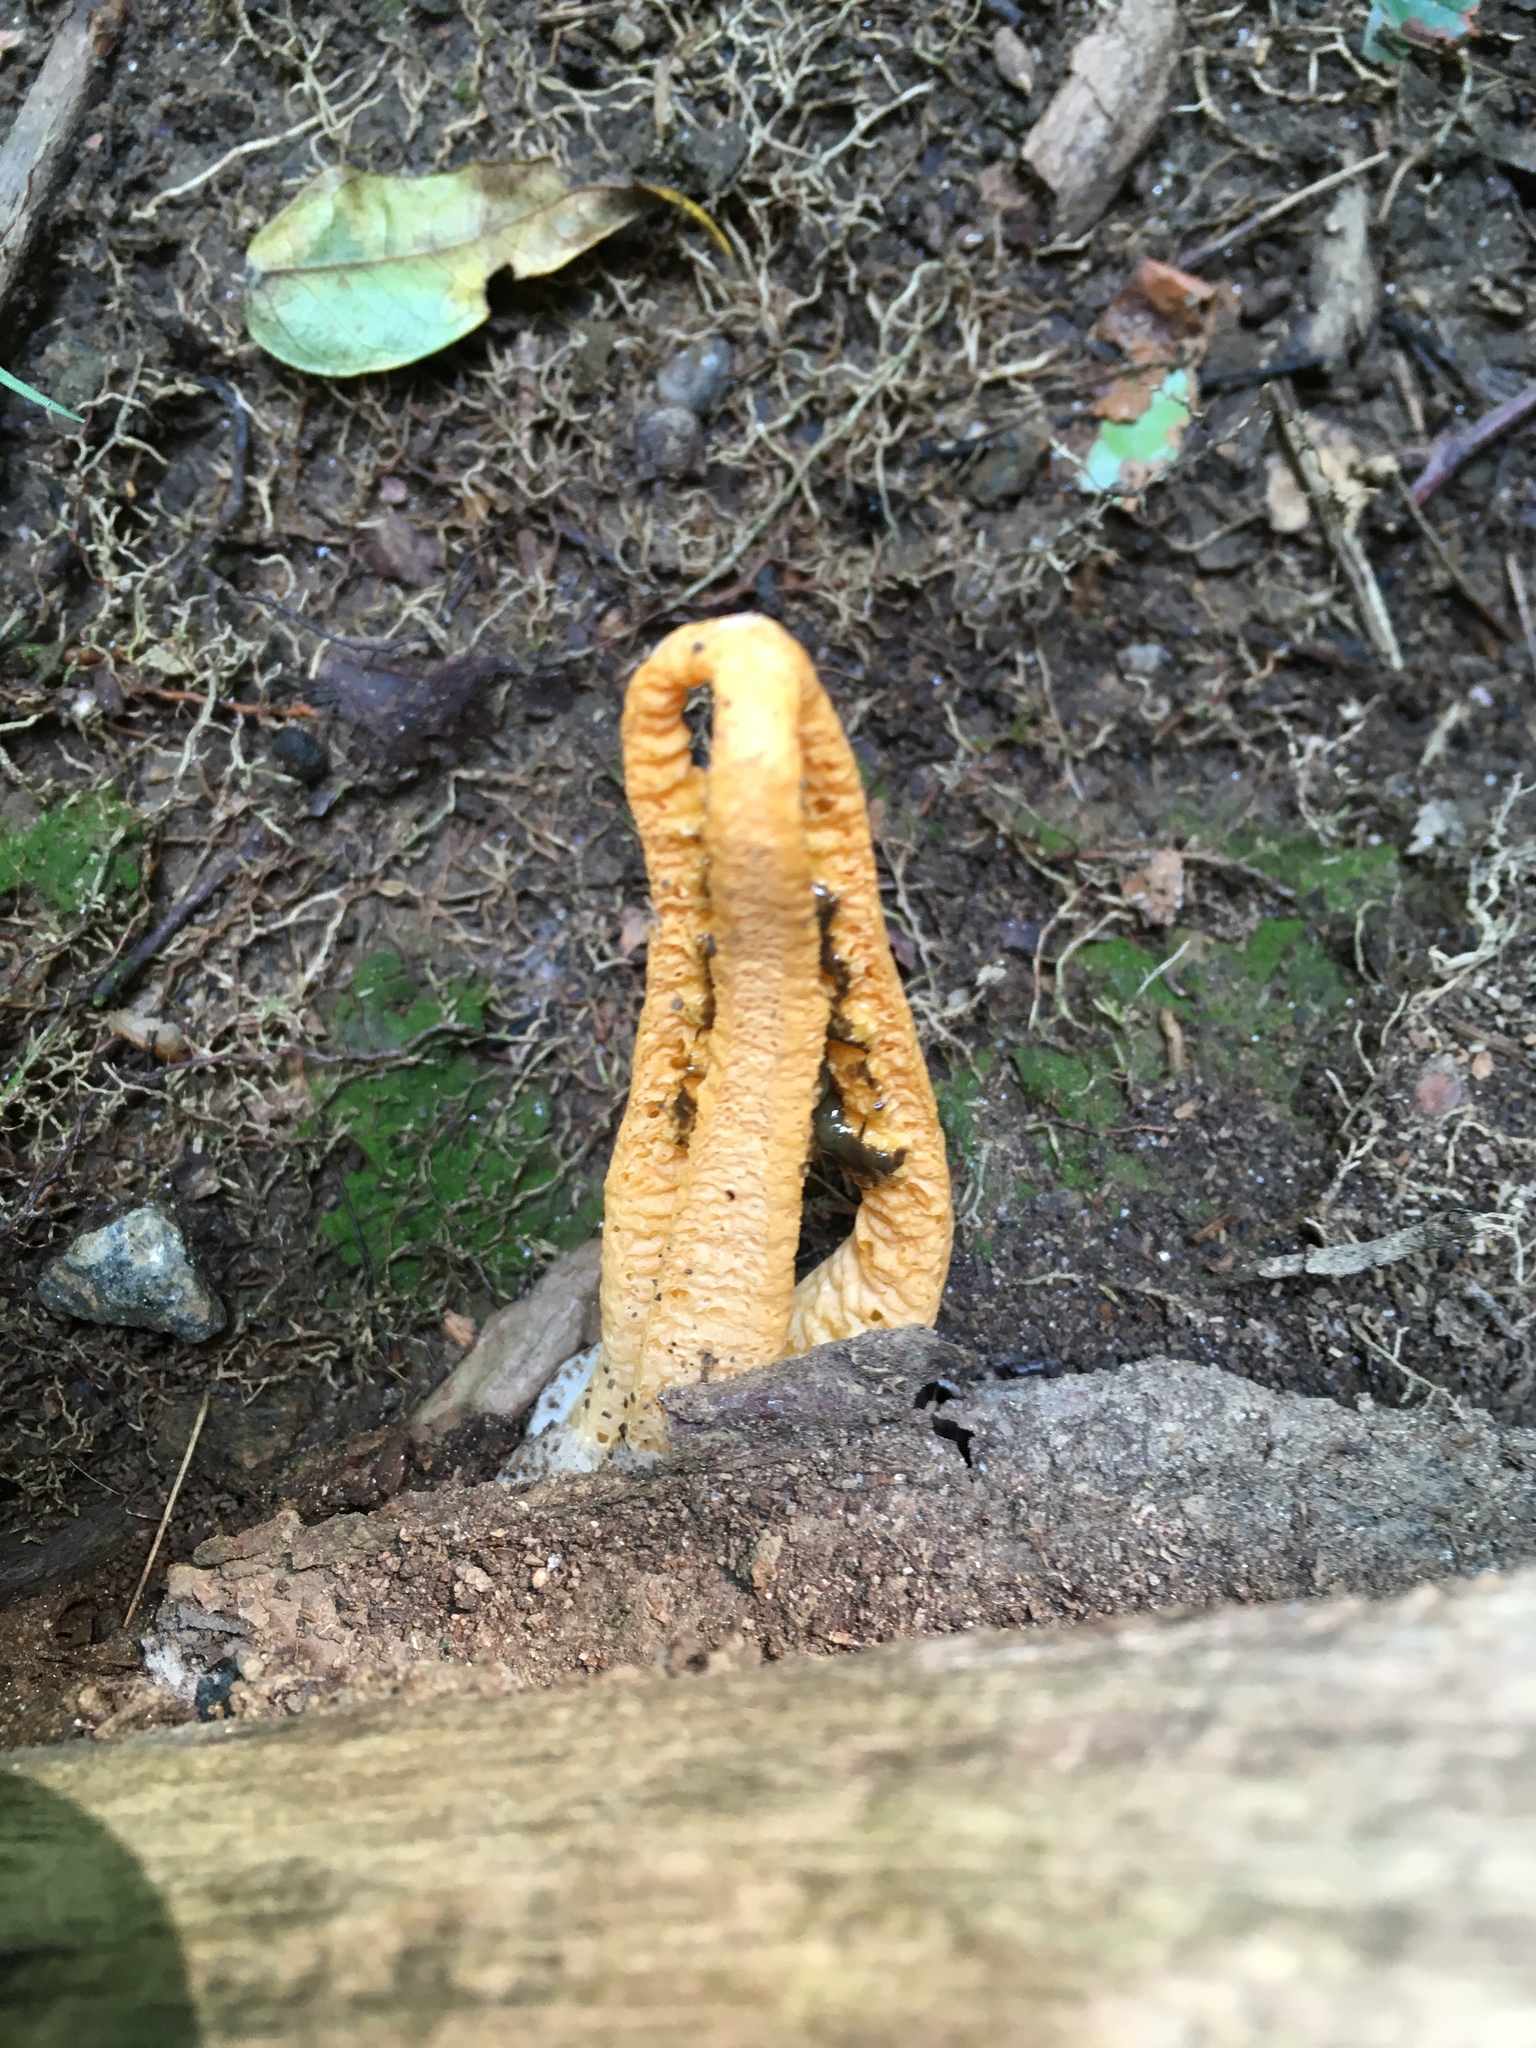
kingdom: Fungi
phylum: Basidiomycota
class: Agaricomycetes
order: Phallales
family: Phallaceae
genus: Pseudocolus
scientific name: Pseudocolus fusiformis
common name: Stinky squid
